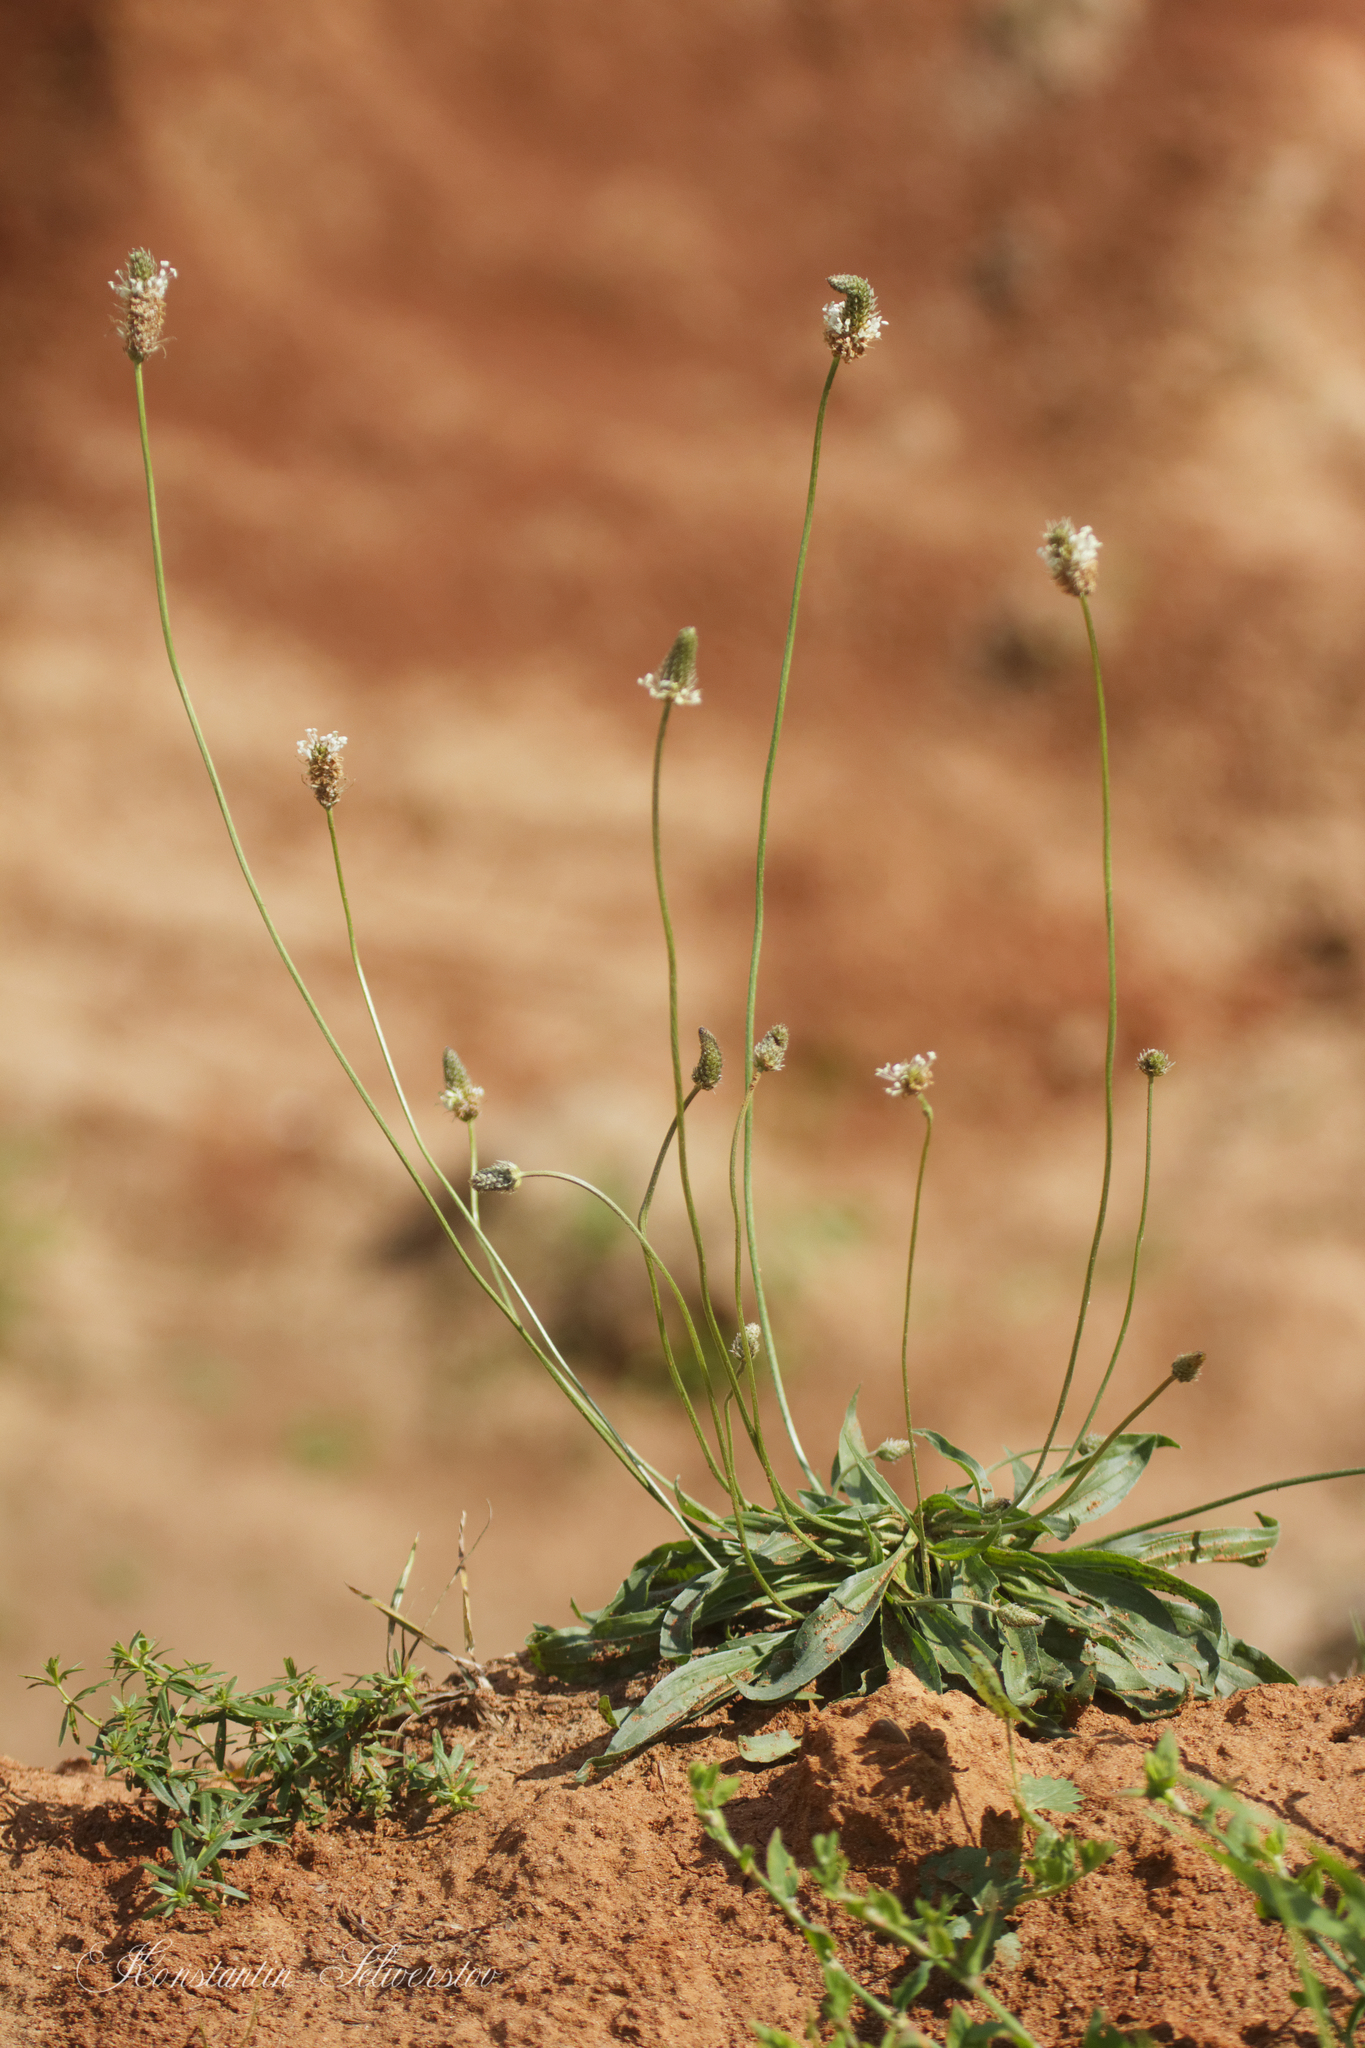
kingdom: Plantae
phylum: Tracheophyta
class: Magnoliopsida
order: Lamiales
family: Plantaginaceae
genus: Plantago
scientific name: Plantago lanceolata
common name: Ribwort plantain
